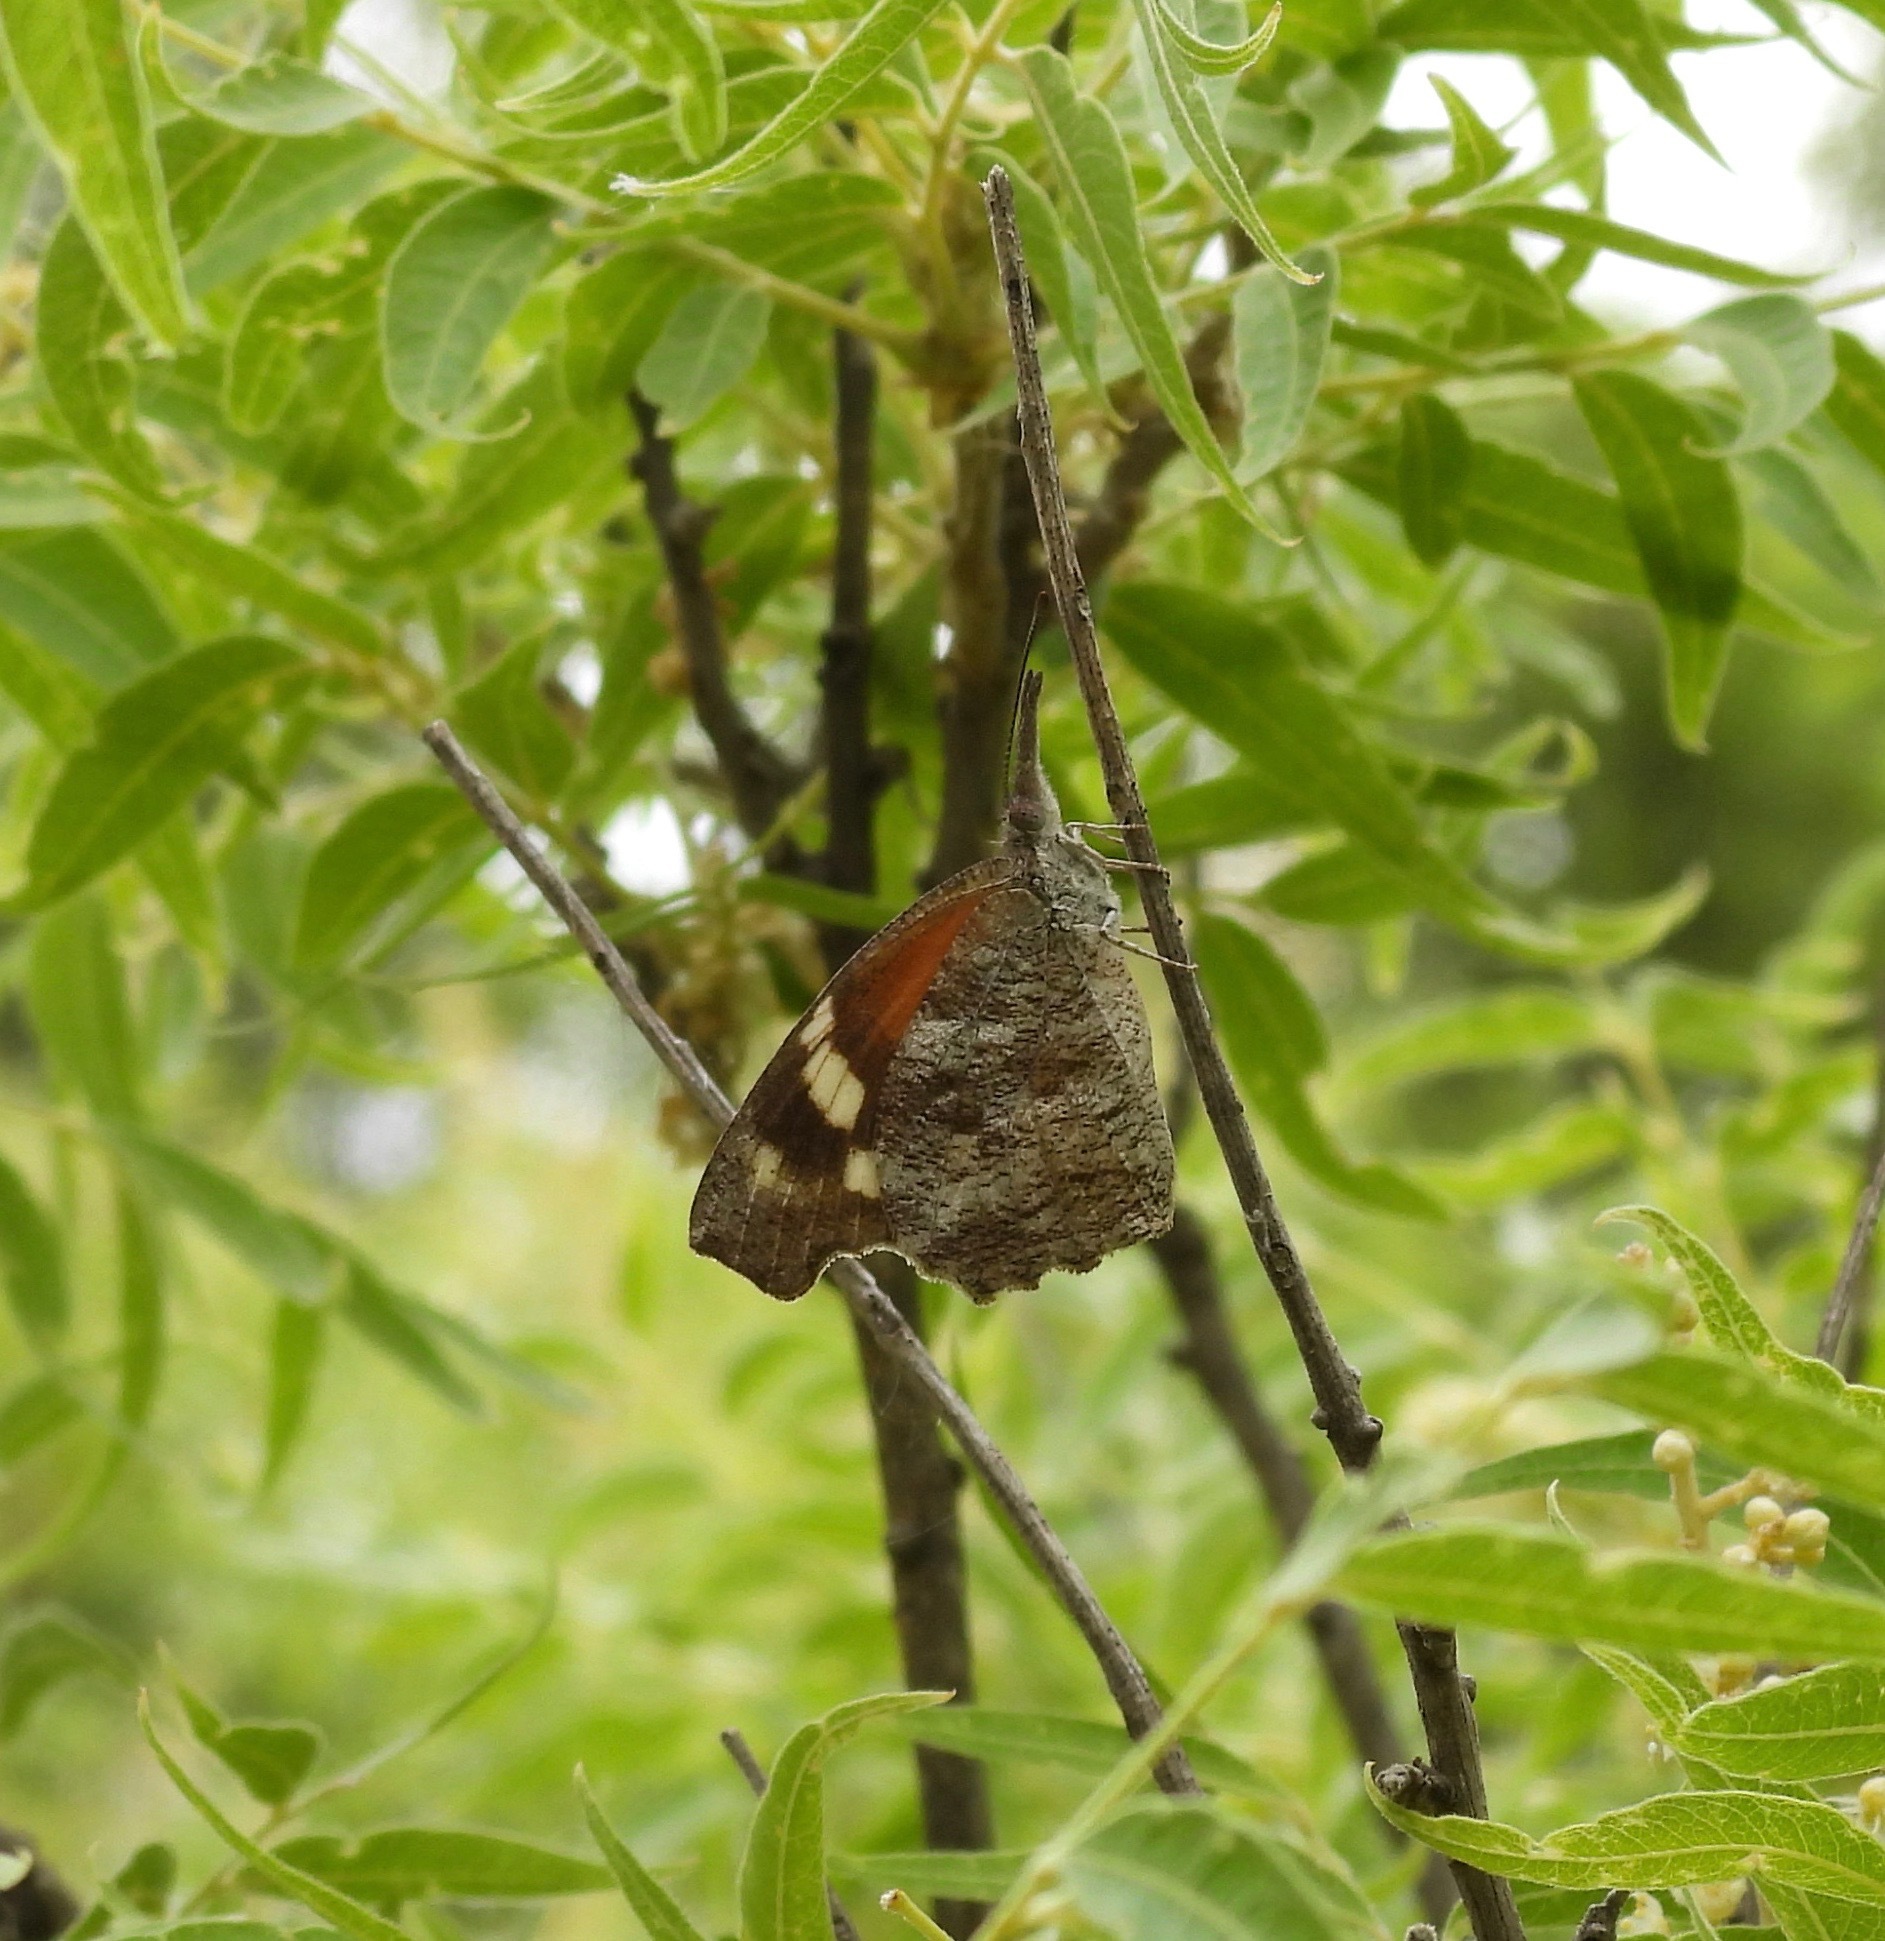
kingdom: Animalia
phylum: Arthropoda
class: Insecta
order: Lepidoptera
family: Nymphalidae
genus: Libytheana
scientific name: Libytheana carinenta
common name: American snout
